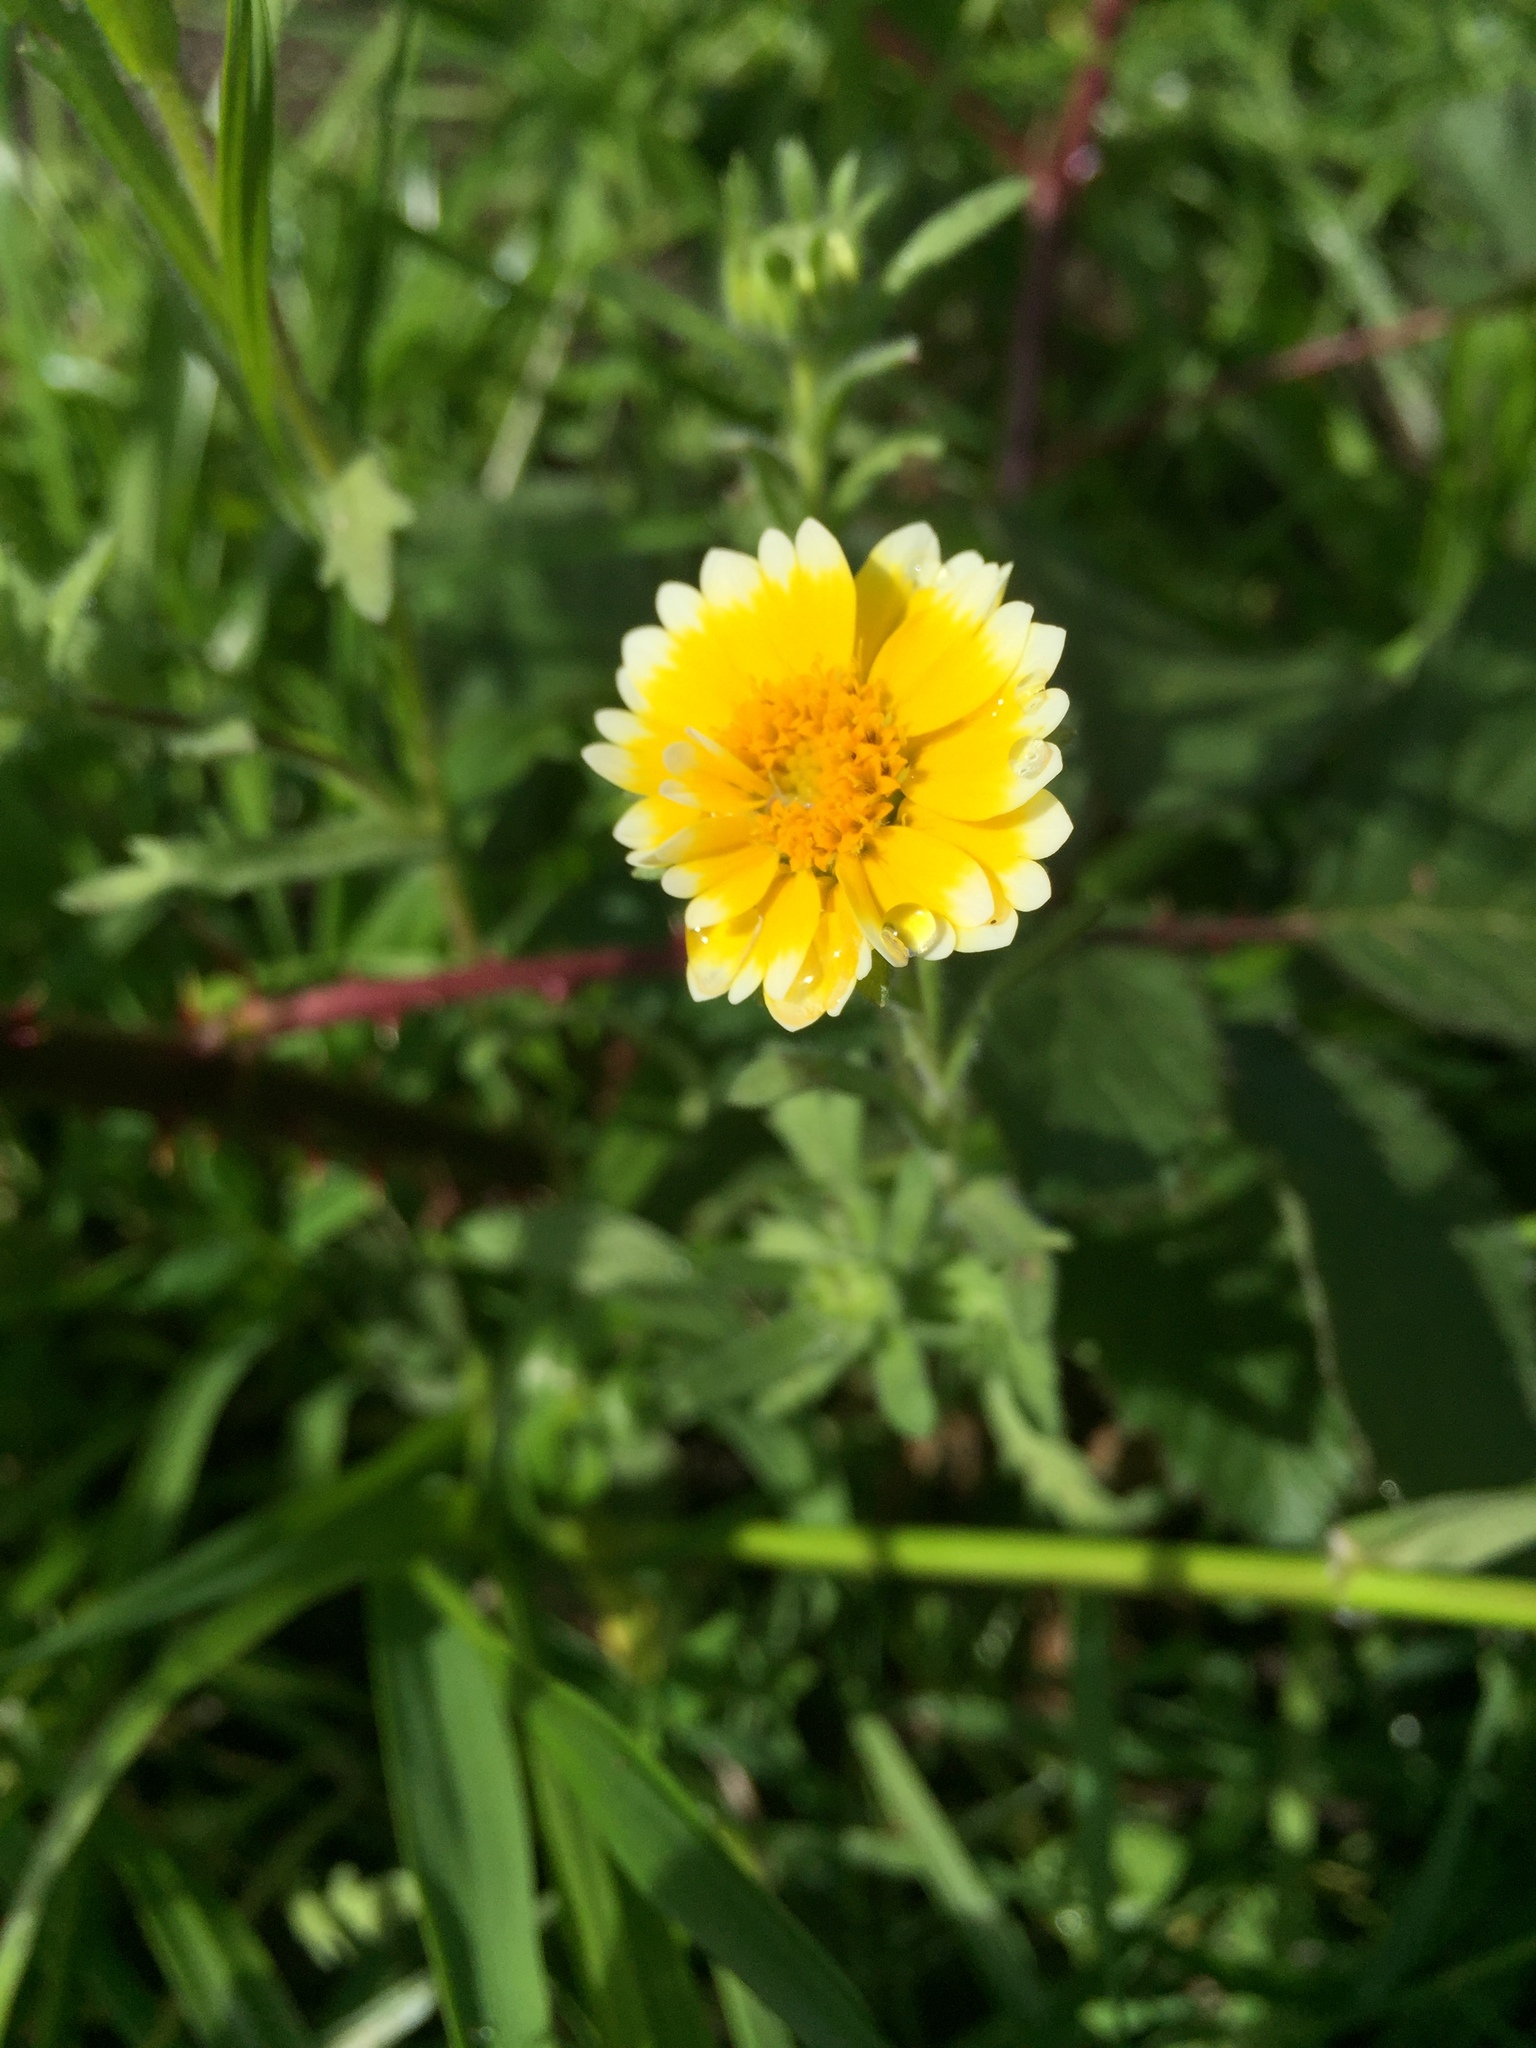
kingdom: Plantae
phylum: Tracheophyta
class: Magnoliopsida
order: Asterales
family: Asteraceae
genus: Layia
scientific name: Layia platyglossa
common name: Tidy-tips
